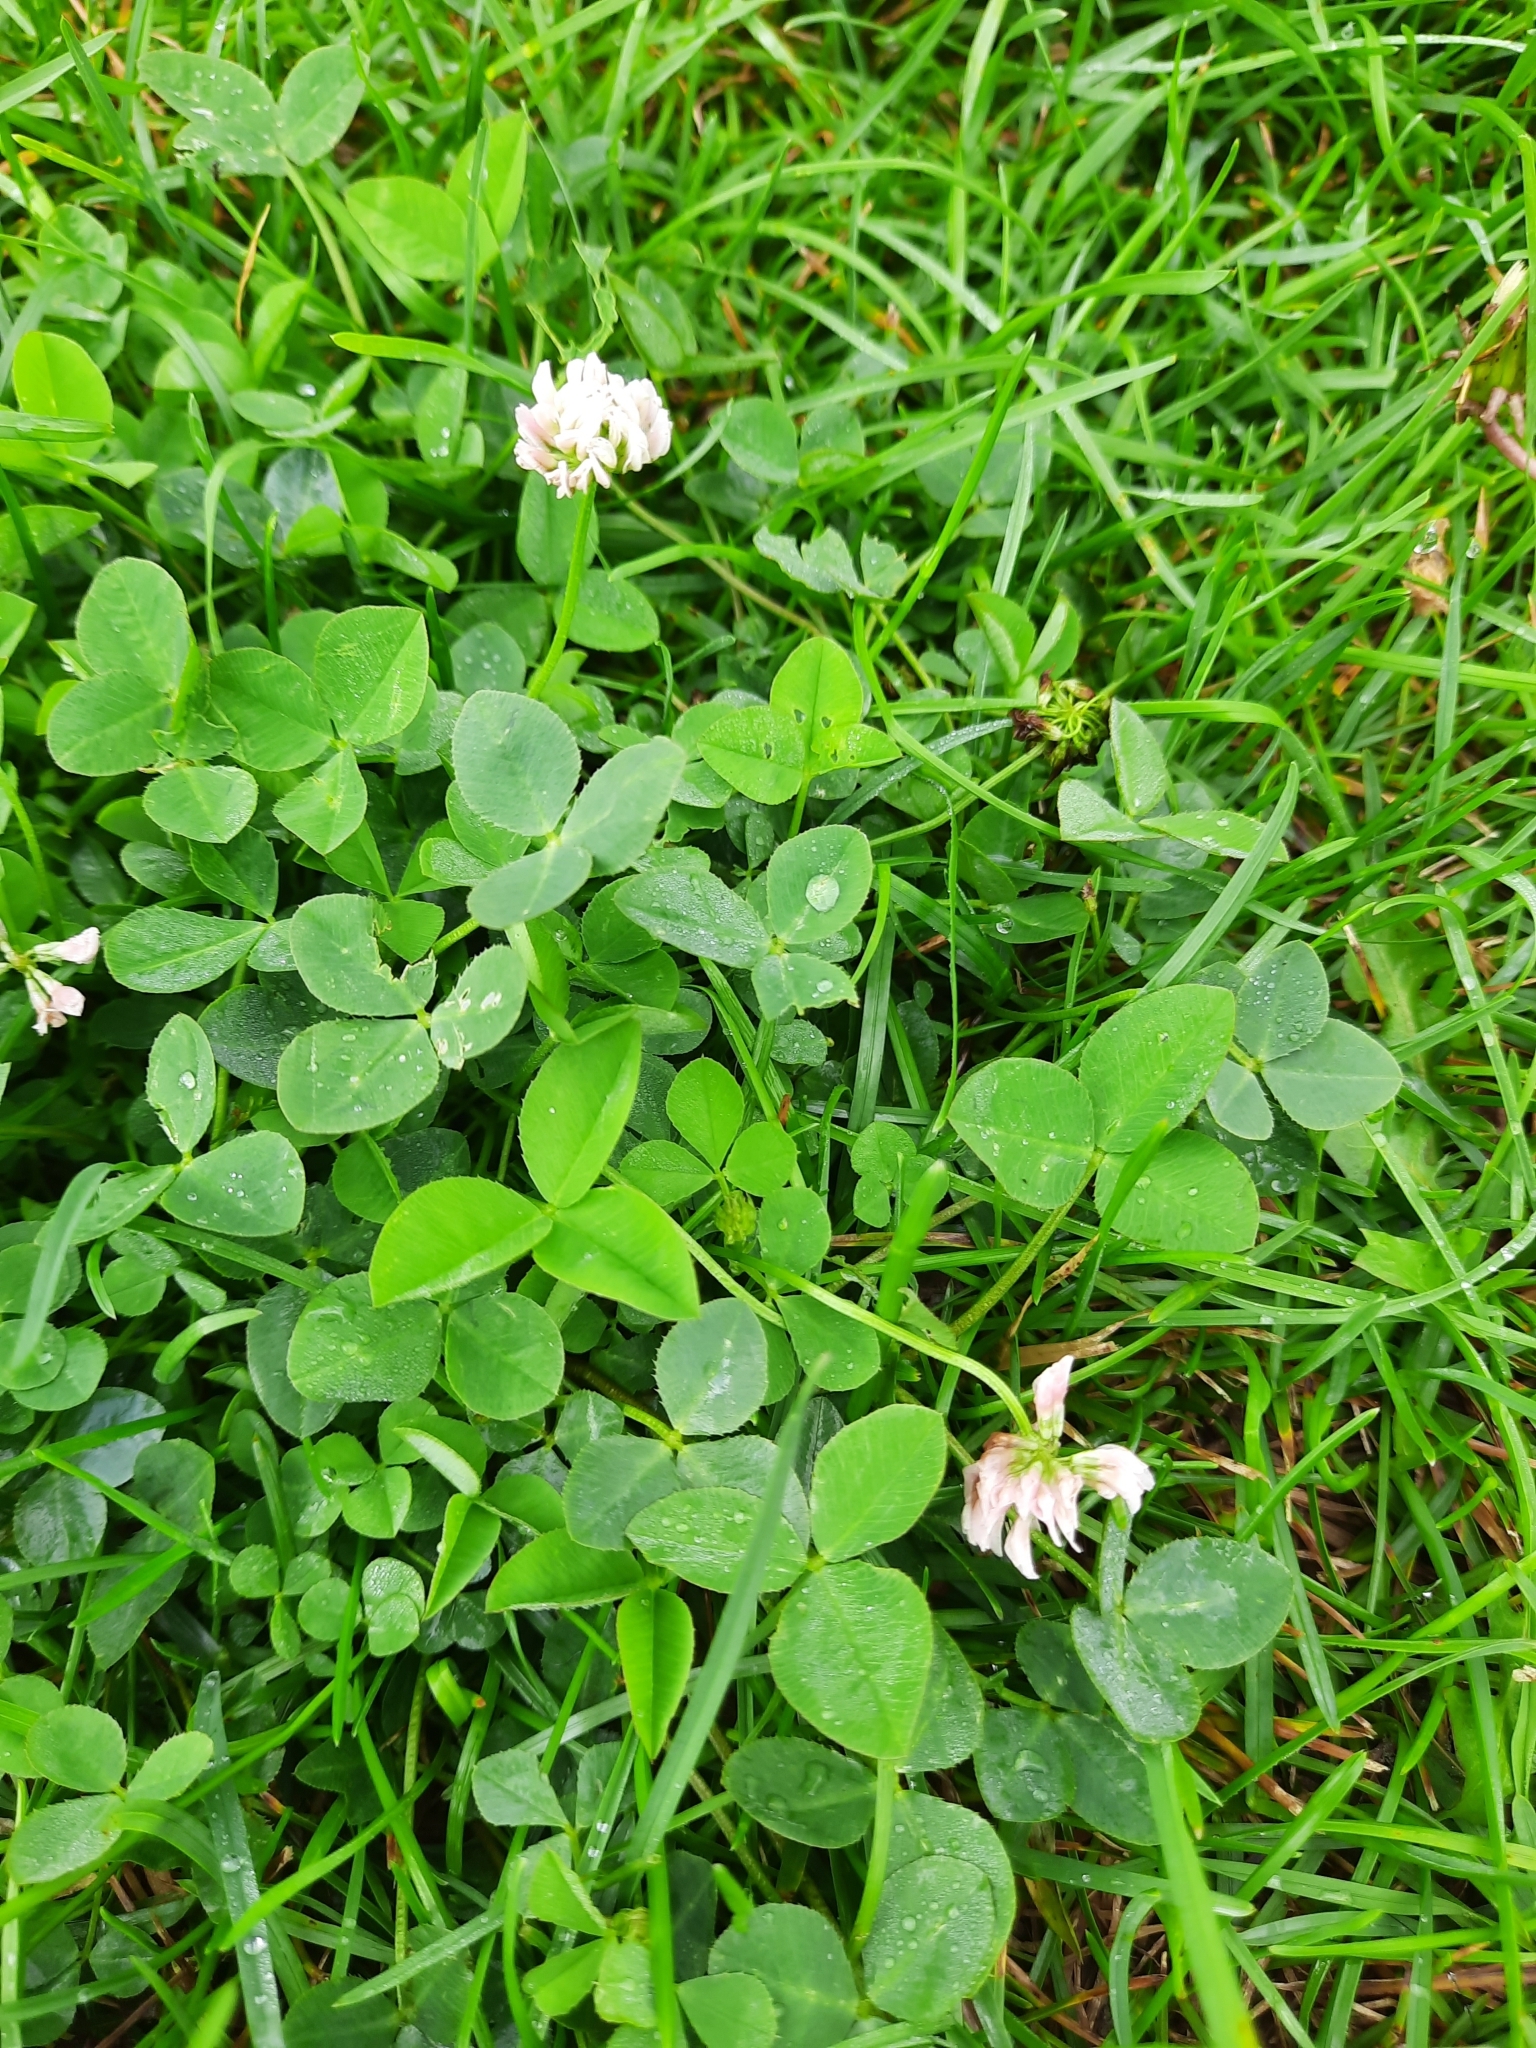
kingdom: Plantae
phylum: Tracheophyta
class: Magnoliopsida
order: Fabales
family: Fabaceae
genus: Trifolium
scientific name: Trifolium repens
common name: White clover
